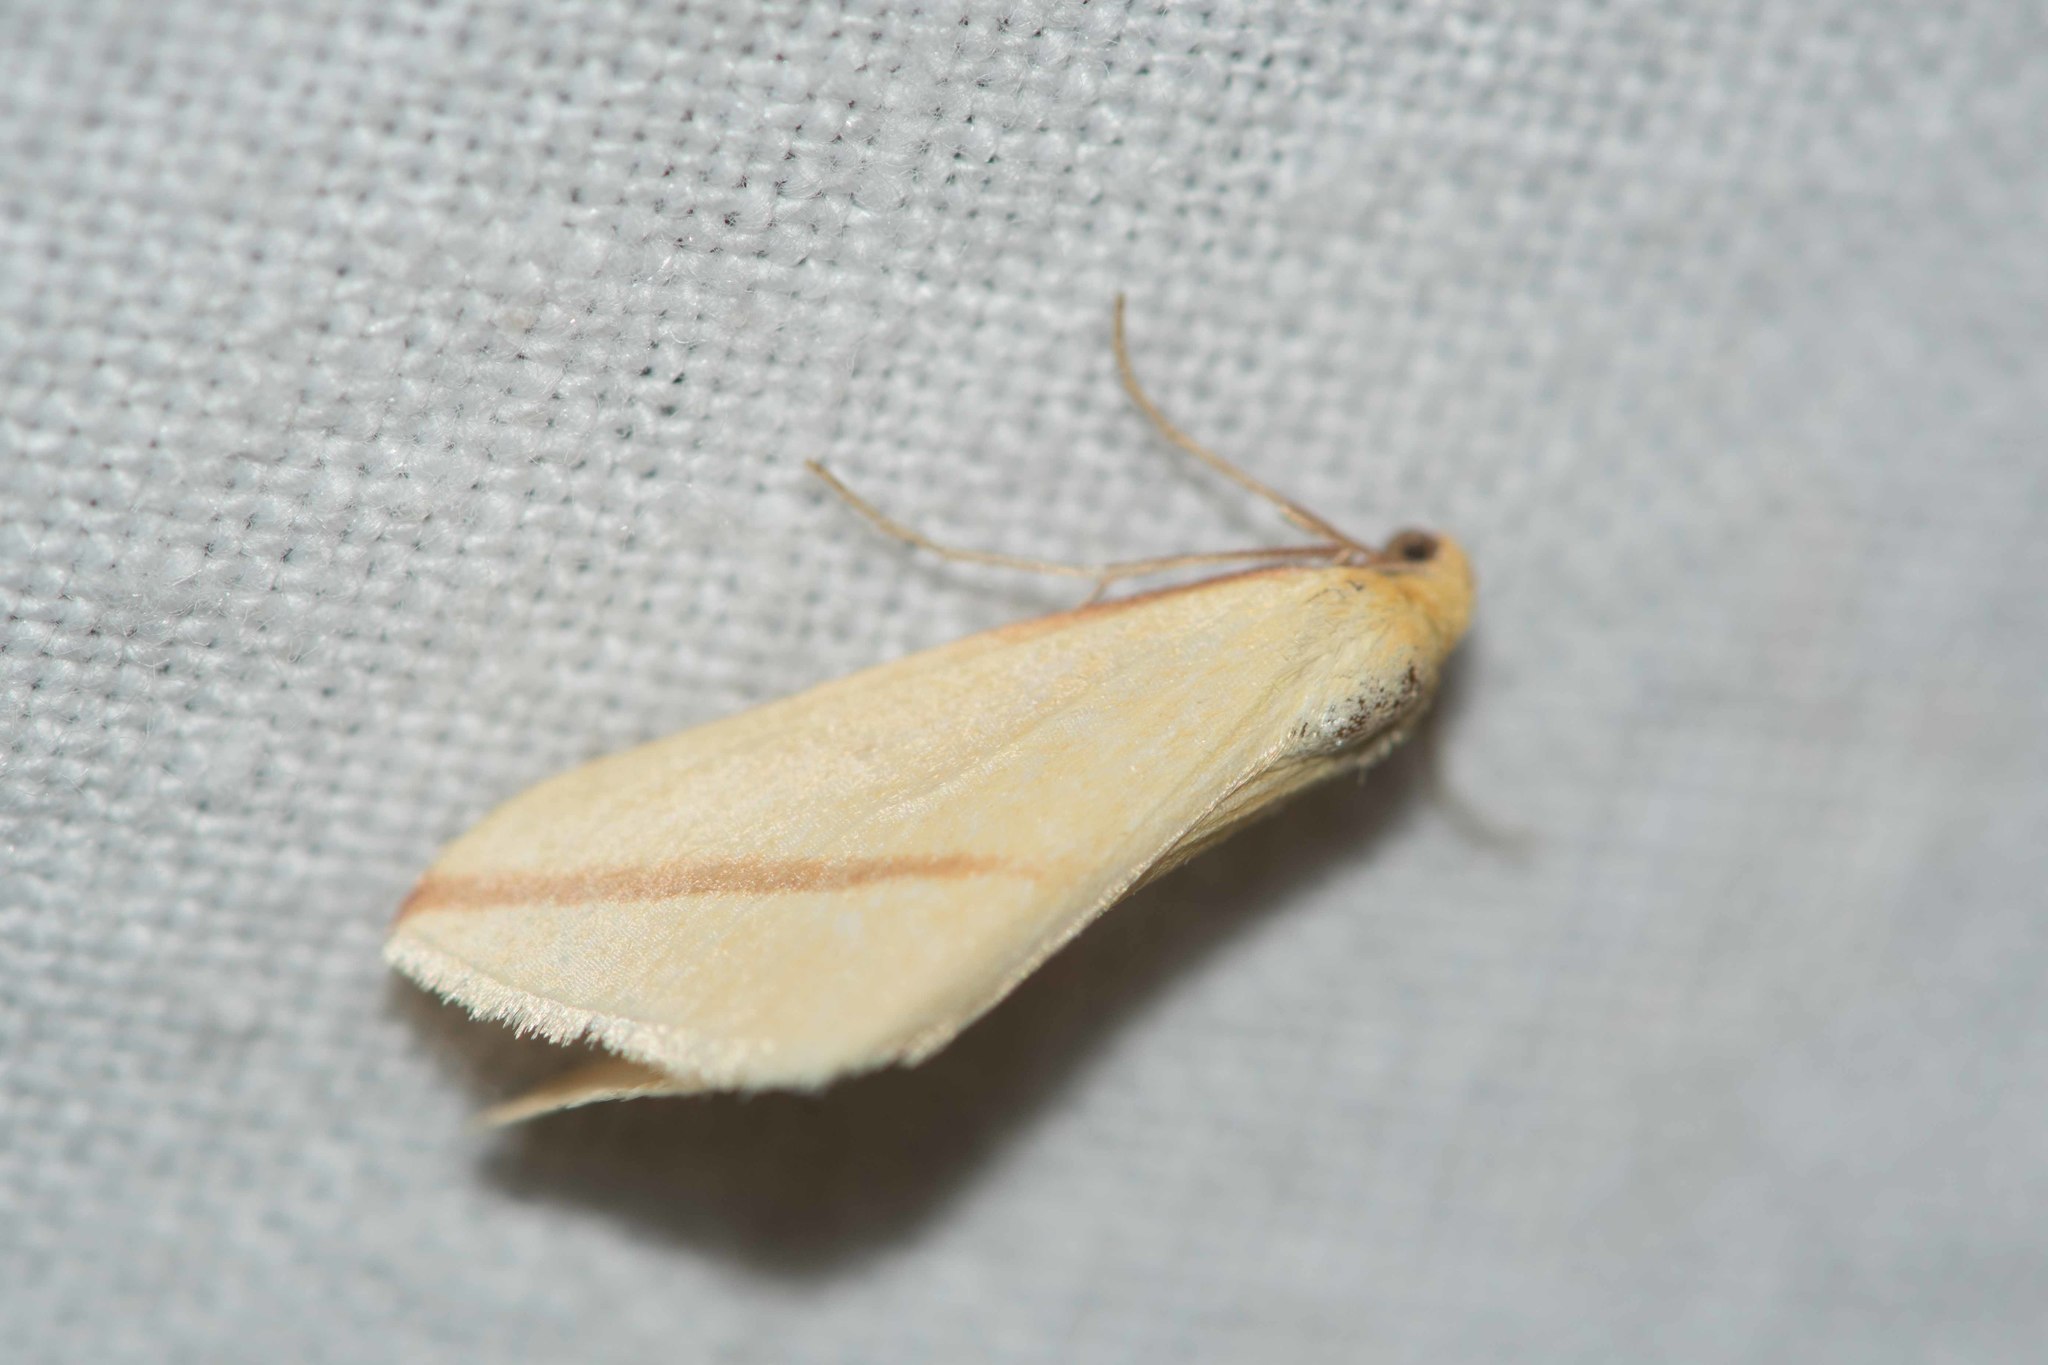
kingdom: Animalia
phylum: Arthropoda
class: Insecta
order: Lepidoptera
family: Geometridae
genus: Rhodometra
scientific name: Rhodometra sacraria
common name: Vestal
